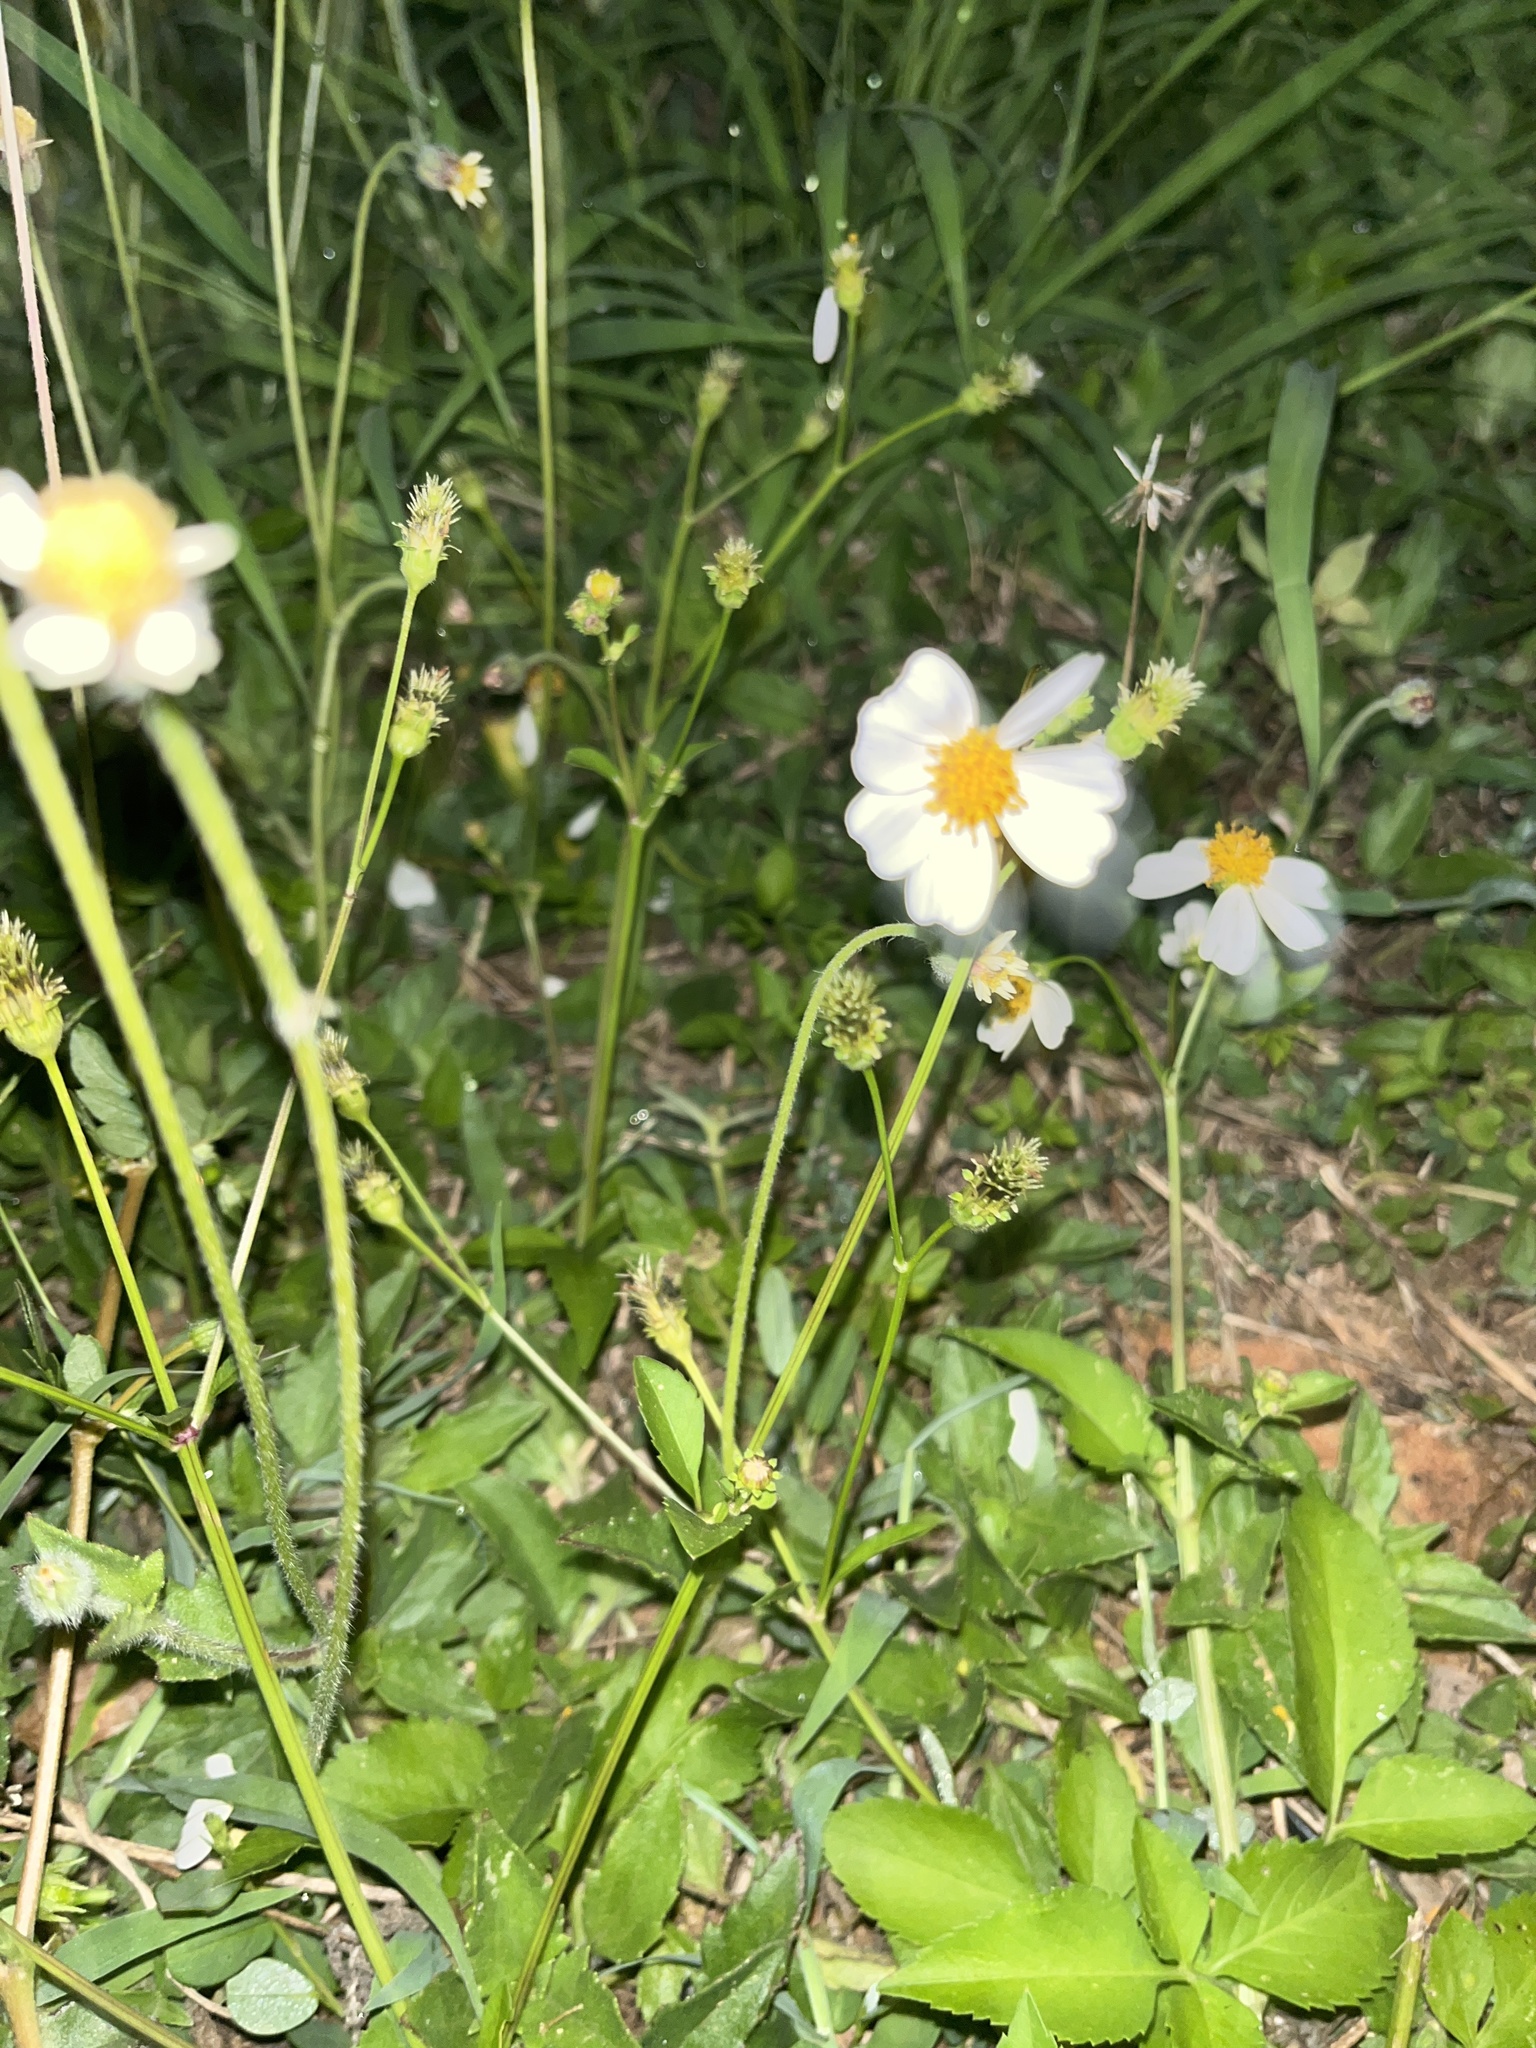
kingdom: Plantae
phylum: Tracheophyta
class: Magnoliopsida
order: Asterales
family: Asteraceae
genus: Bidens
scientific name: Bidens alba
